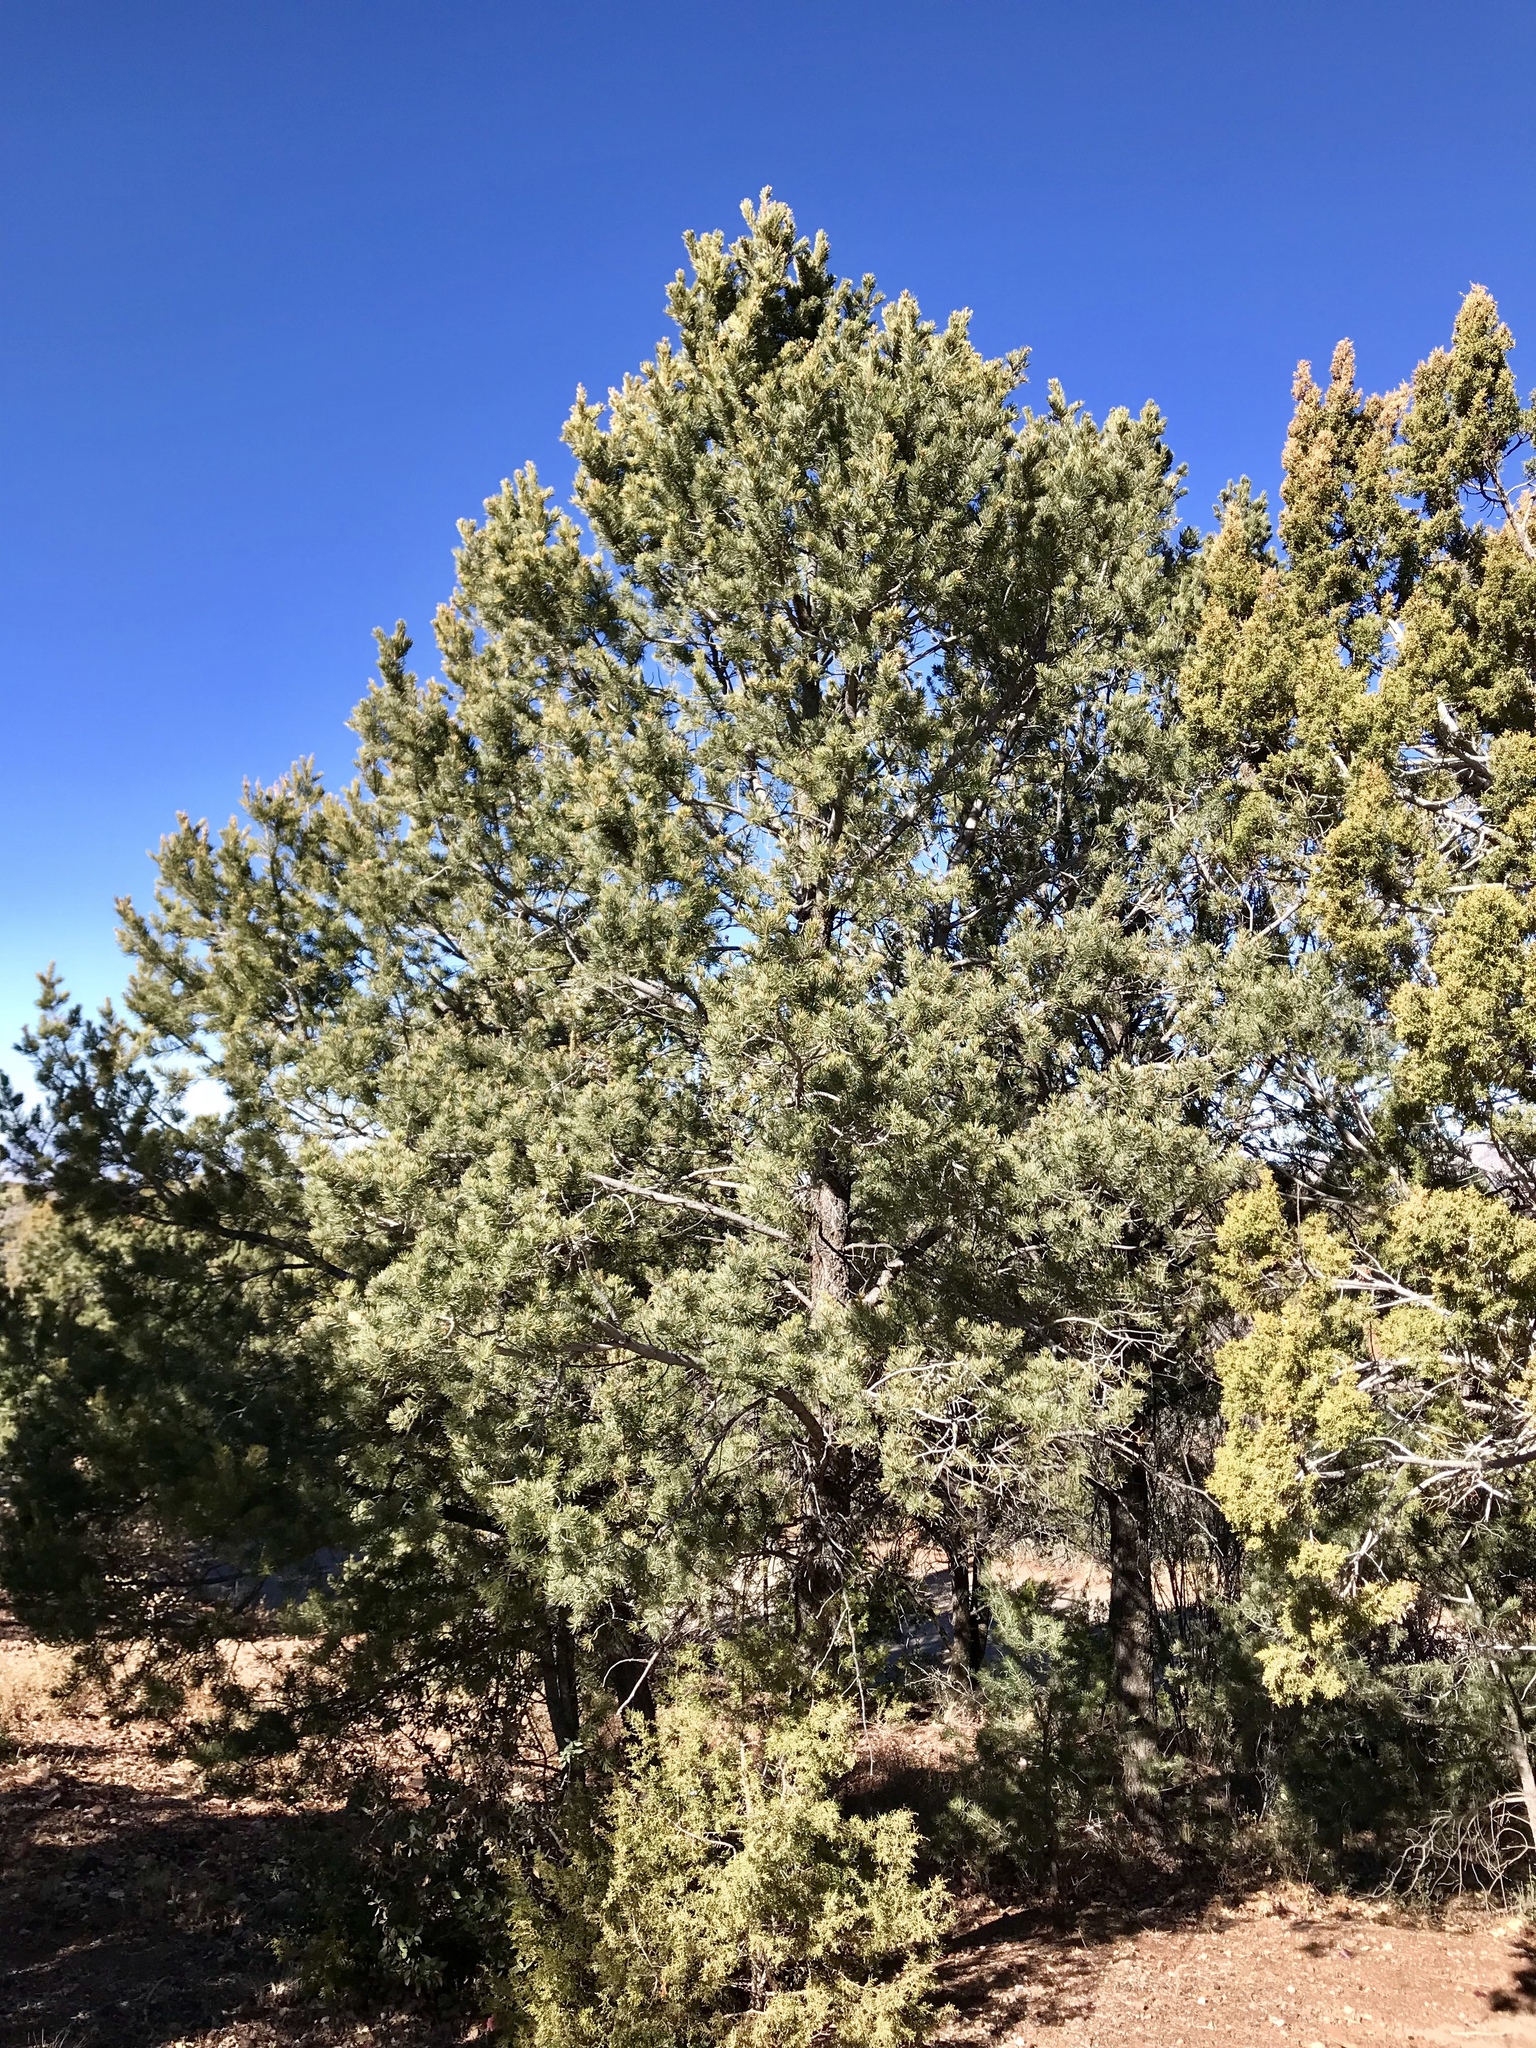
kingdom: Plantae
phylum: Tracheophyta
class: Pinopsida
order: Pinales
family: Pinaceae
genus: Pinus
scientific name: Pinus edulis
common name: Colorado pinyon
